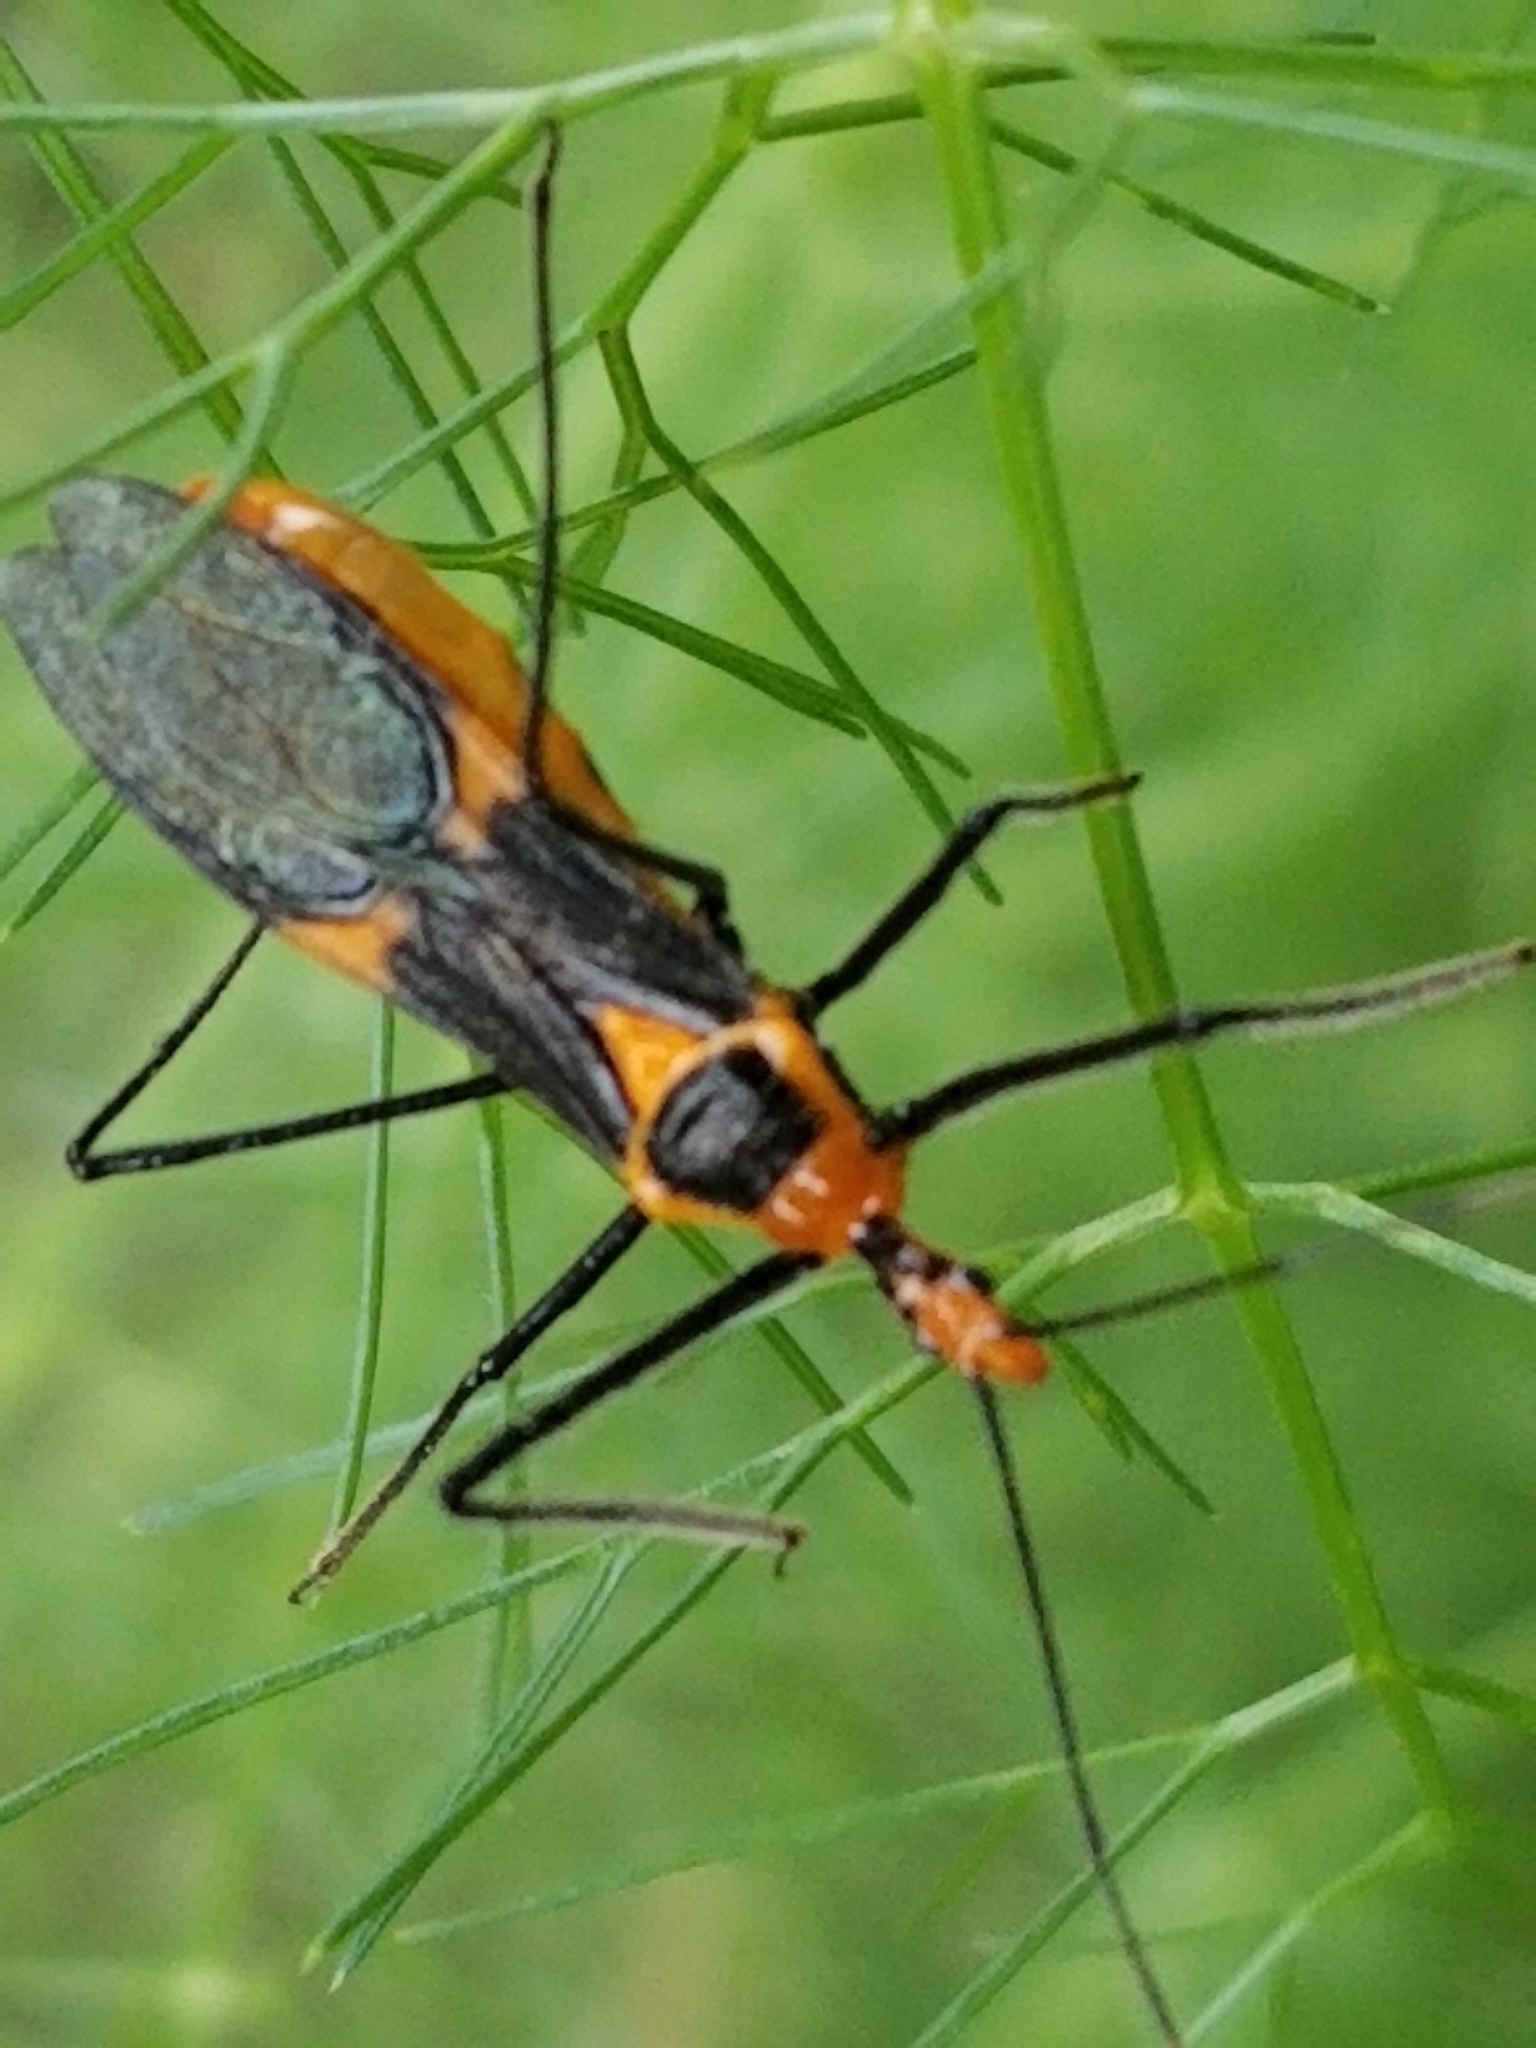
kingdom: Animalia
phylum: Arthropoda
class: Insecta
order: Hemiptera
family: Reduviidae
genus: Zelus
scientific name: Zelus longipes
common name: Milkweed assassin bug
